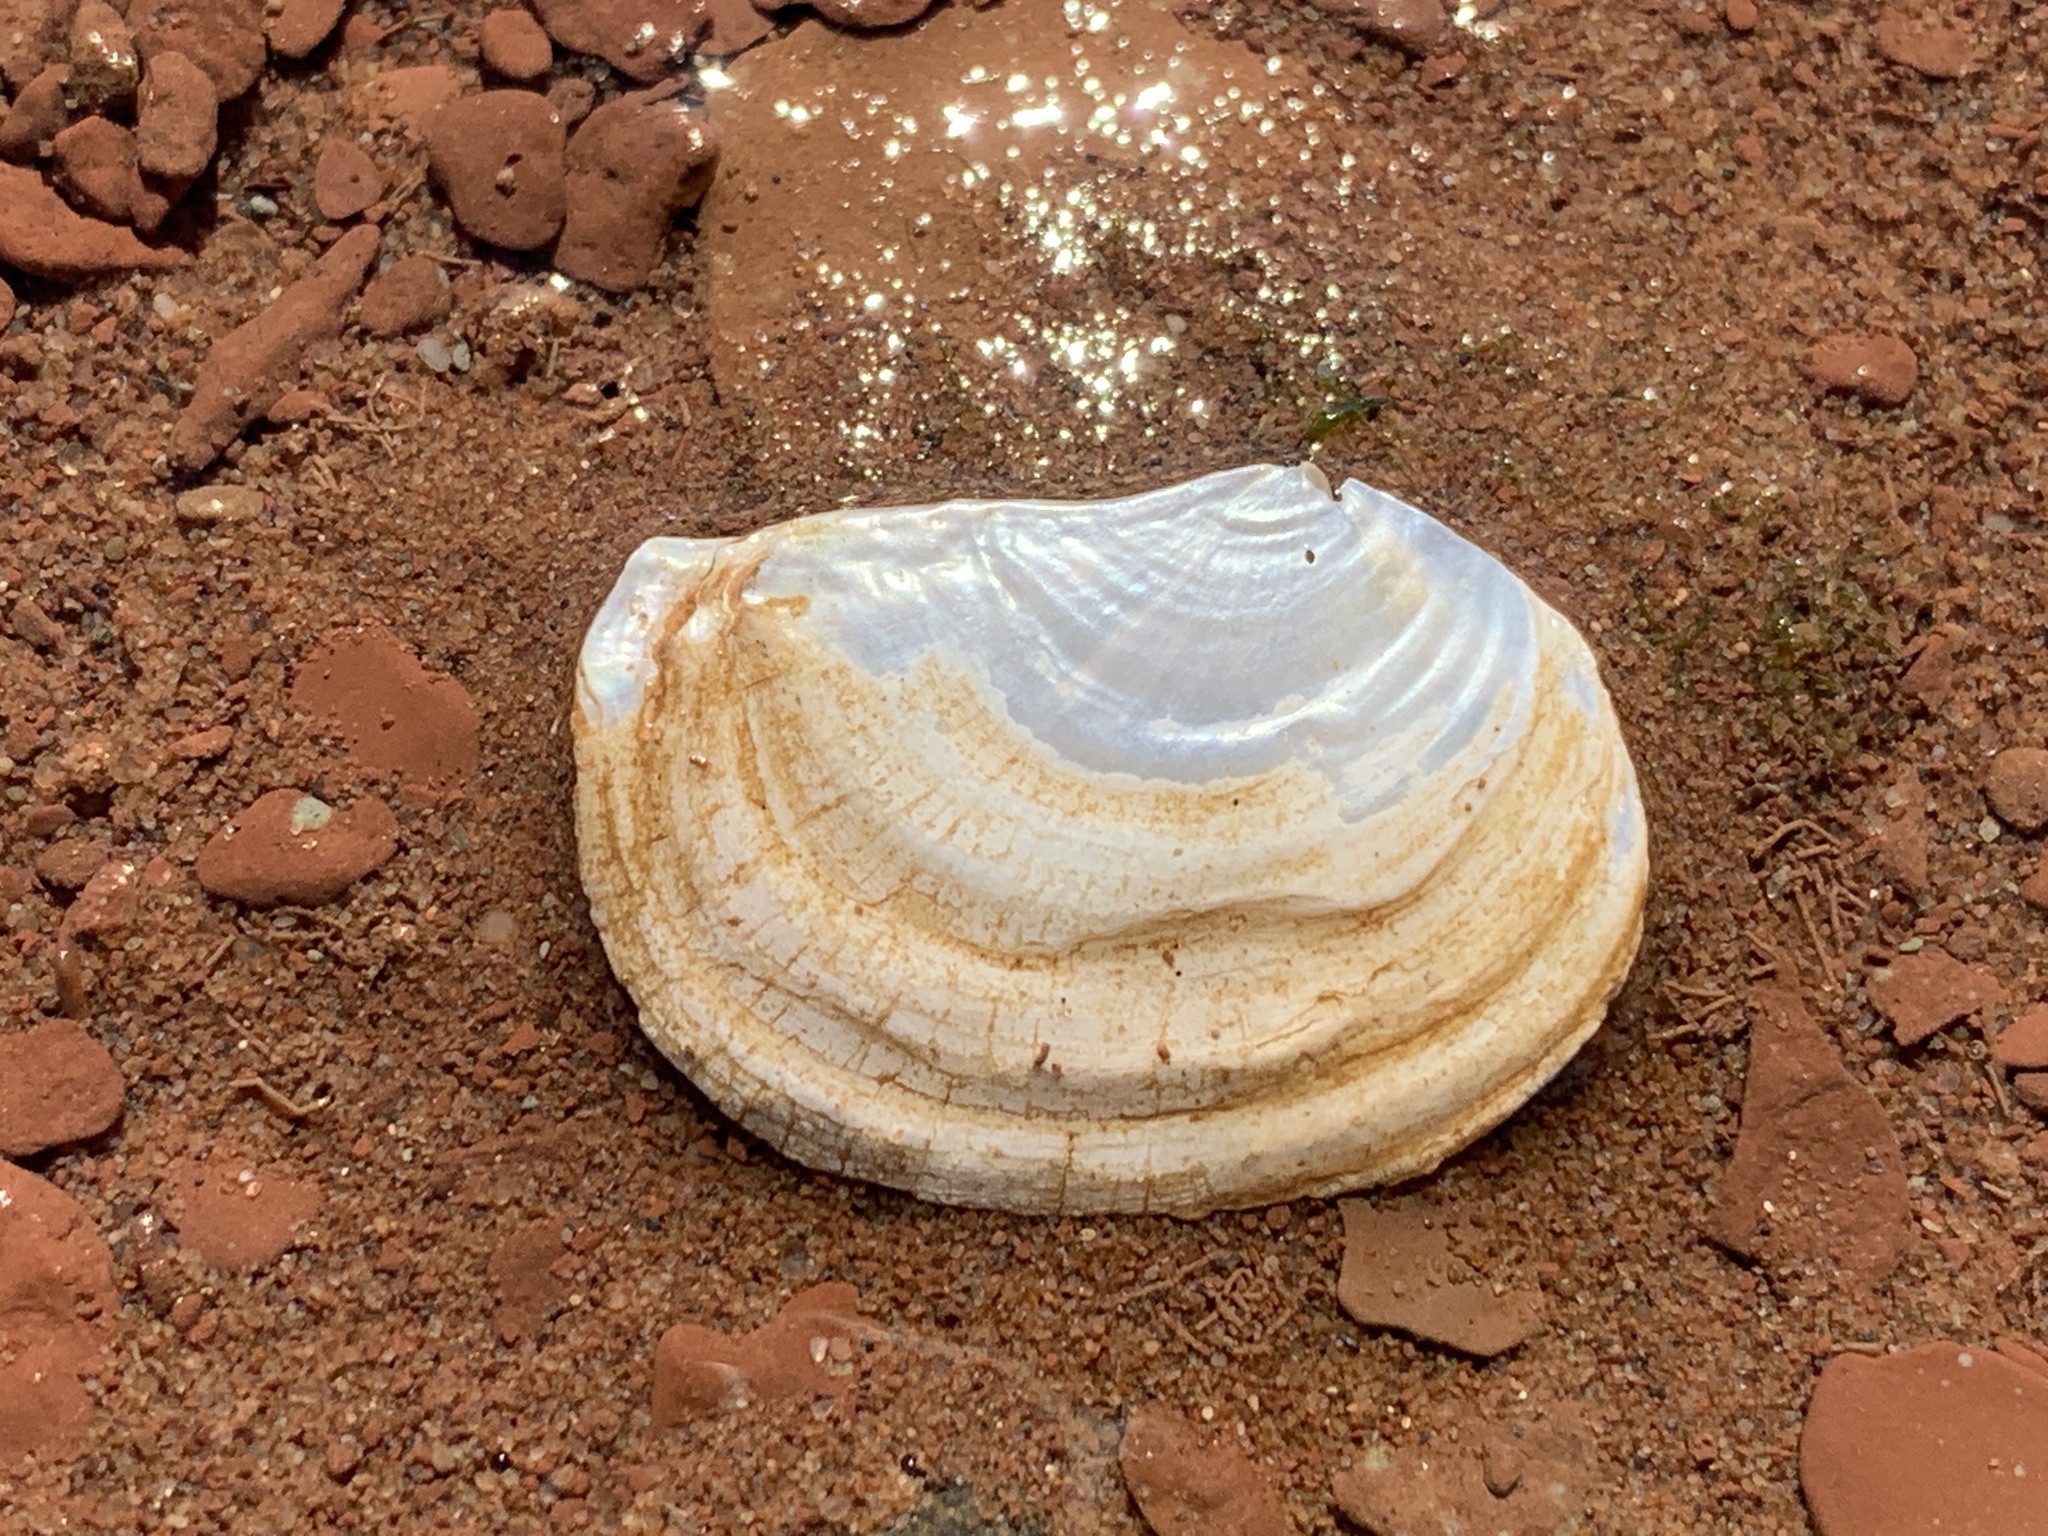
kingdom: Animalia
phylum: Mollusca
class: Bivalvia
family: Pandoridae
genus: Pandora
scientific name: Pandora gouldiana
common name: Rounded pandora
